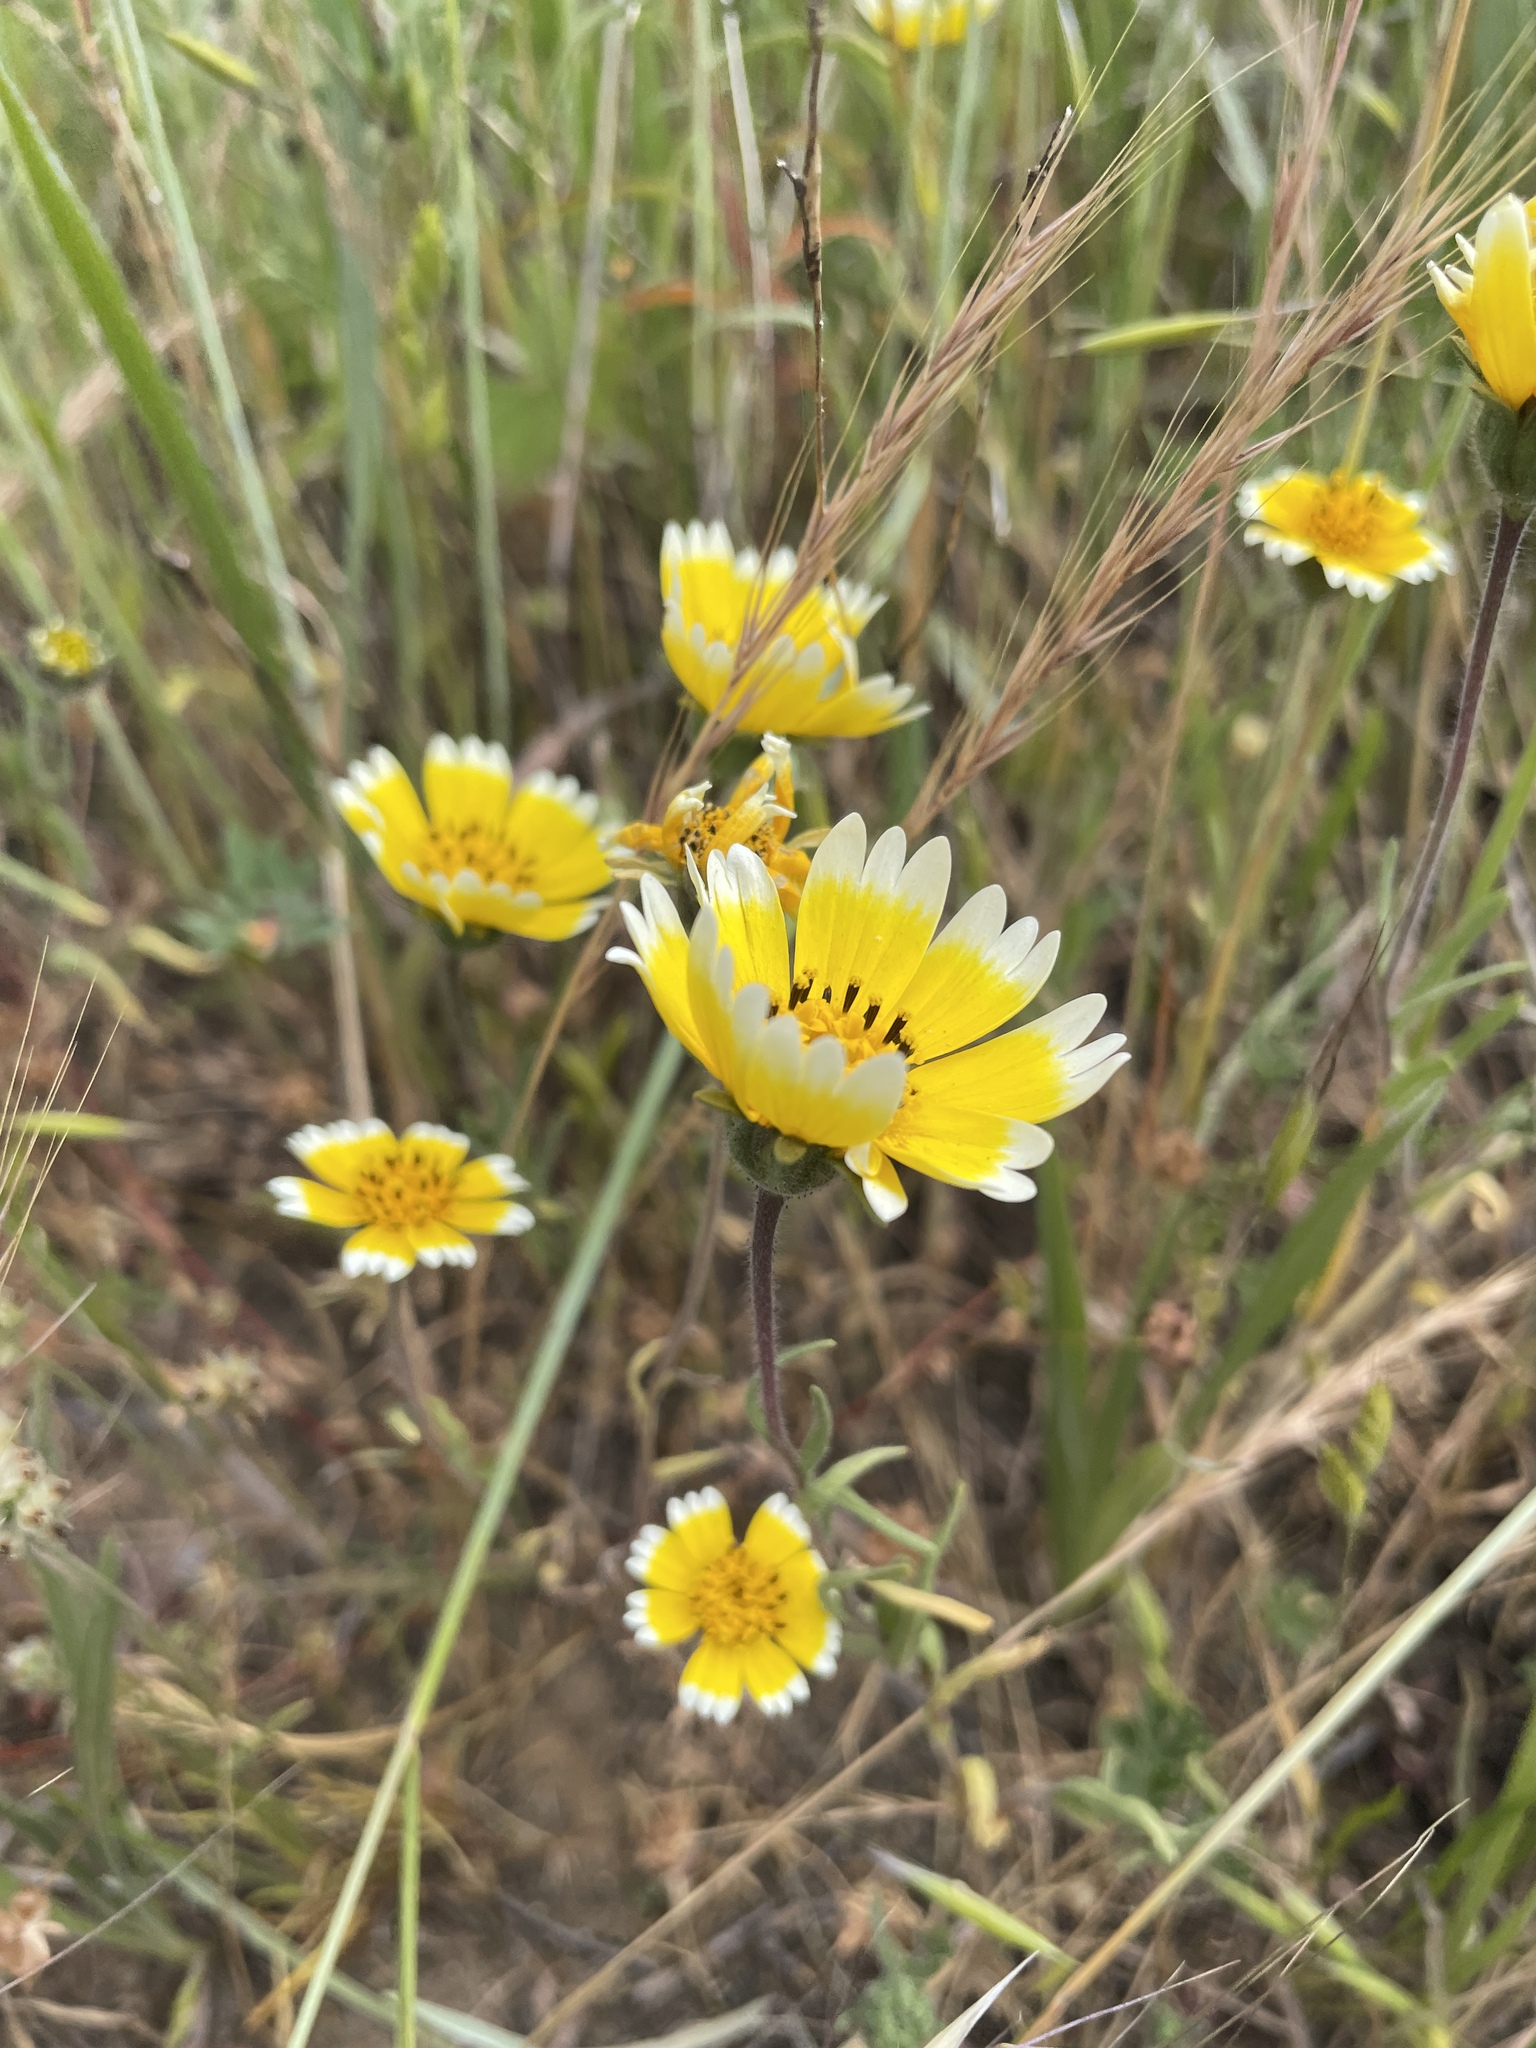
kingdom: Plantae
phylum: Tracheophyta
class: Magnoliopsida
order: Asterales
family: Asteraceae
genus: Layia
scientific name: Layia platyglossa
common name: Tidy-tips
